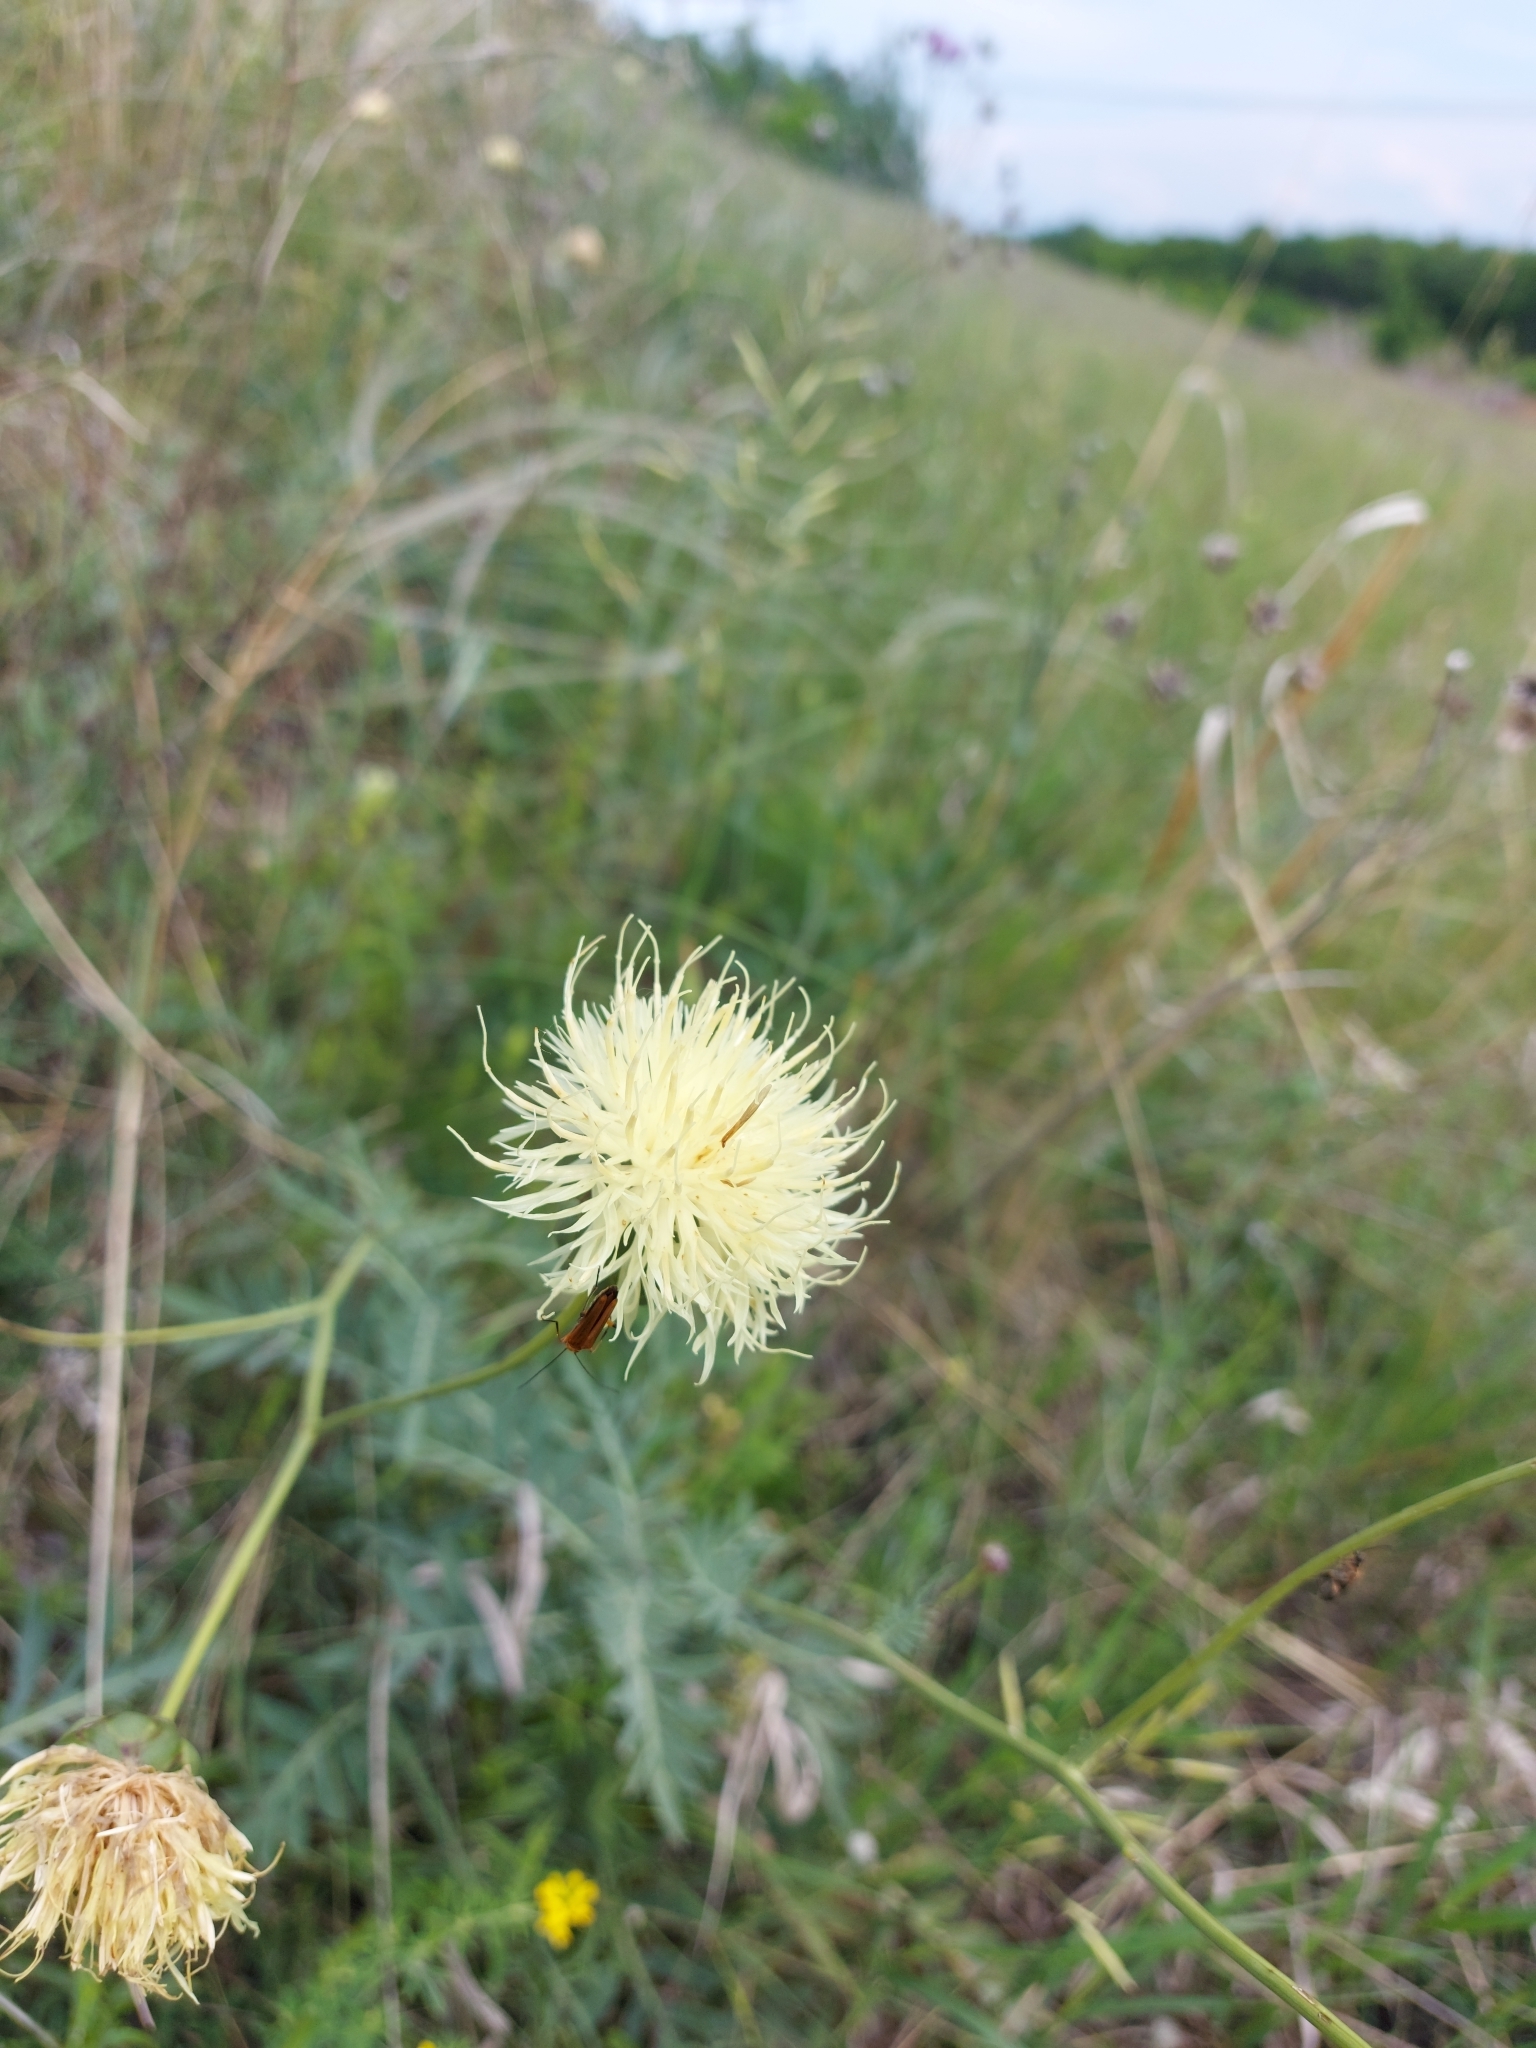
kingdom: Plantae
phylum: Tracheophyta
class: Magnoliopsida
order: Asterales
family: Asteraceae
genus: Rhaponticoides
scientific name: Rhaponticoides ruthenica
